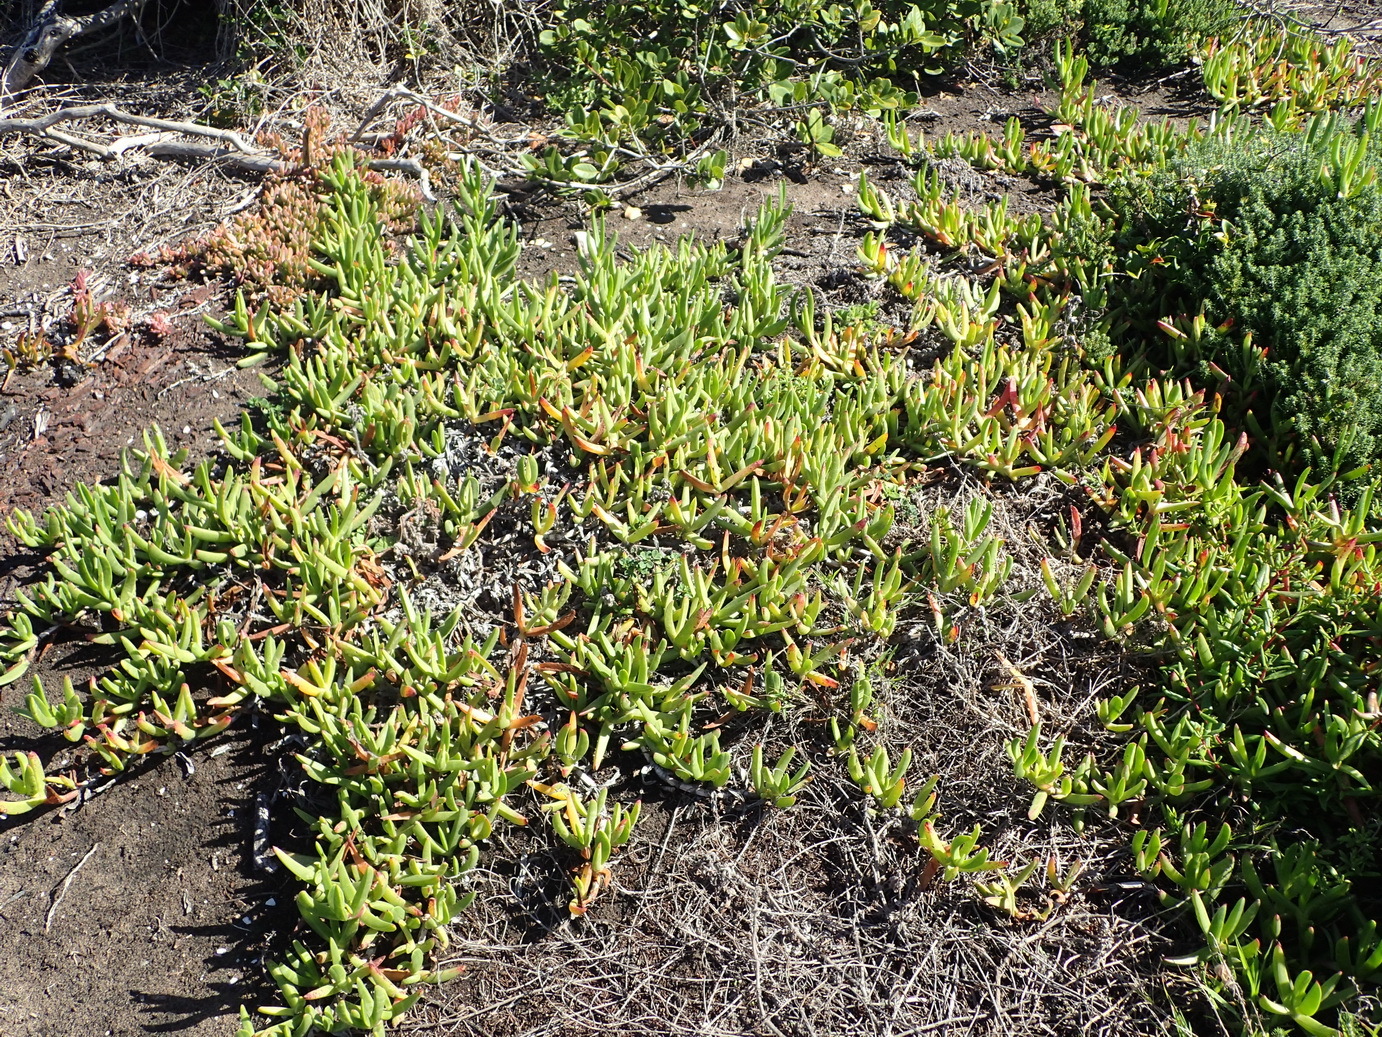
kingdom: Plantae
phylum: Tracheophyta
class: Magnoliopsida
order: Caryophyllales
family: Aizoaceae
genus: Carpobrotus
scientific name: Carpobrotus edulis
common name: Hottentot-fig
